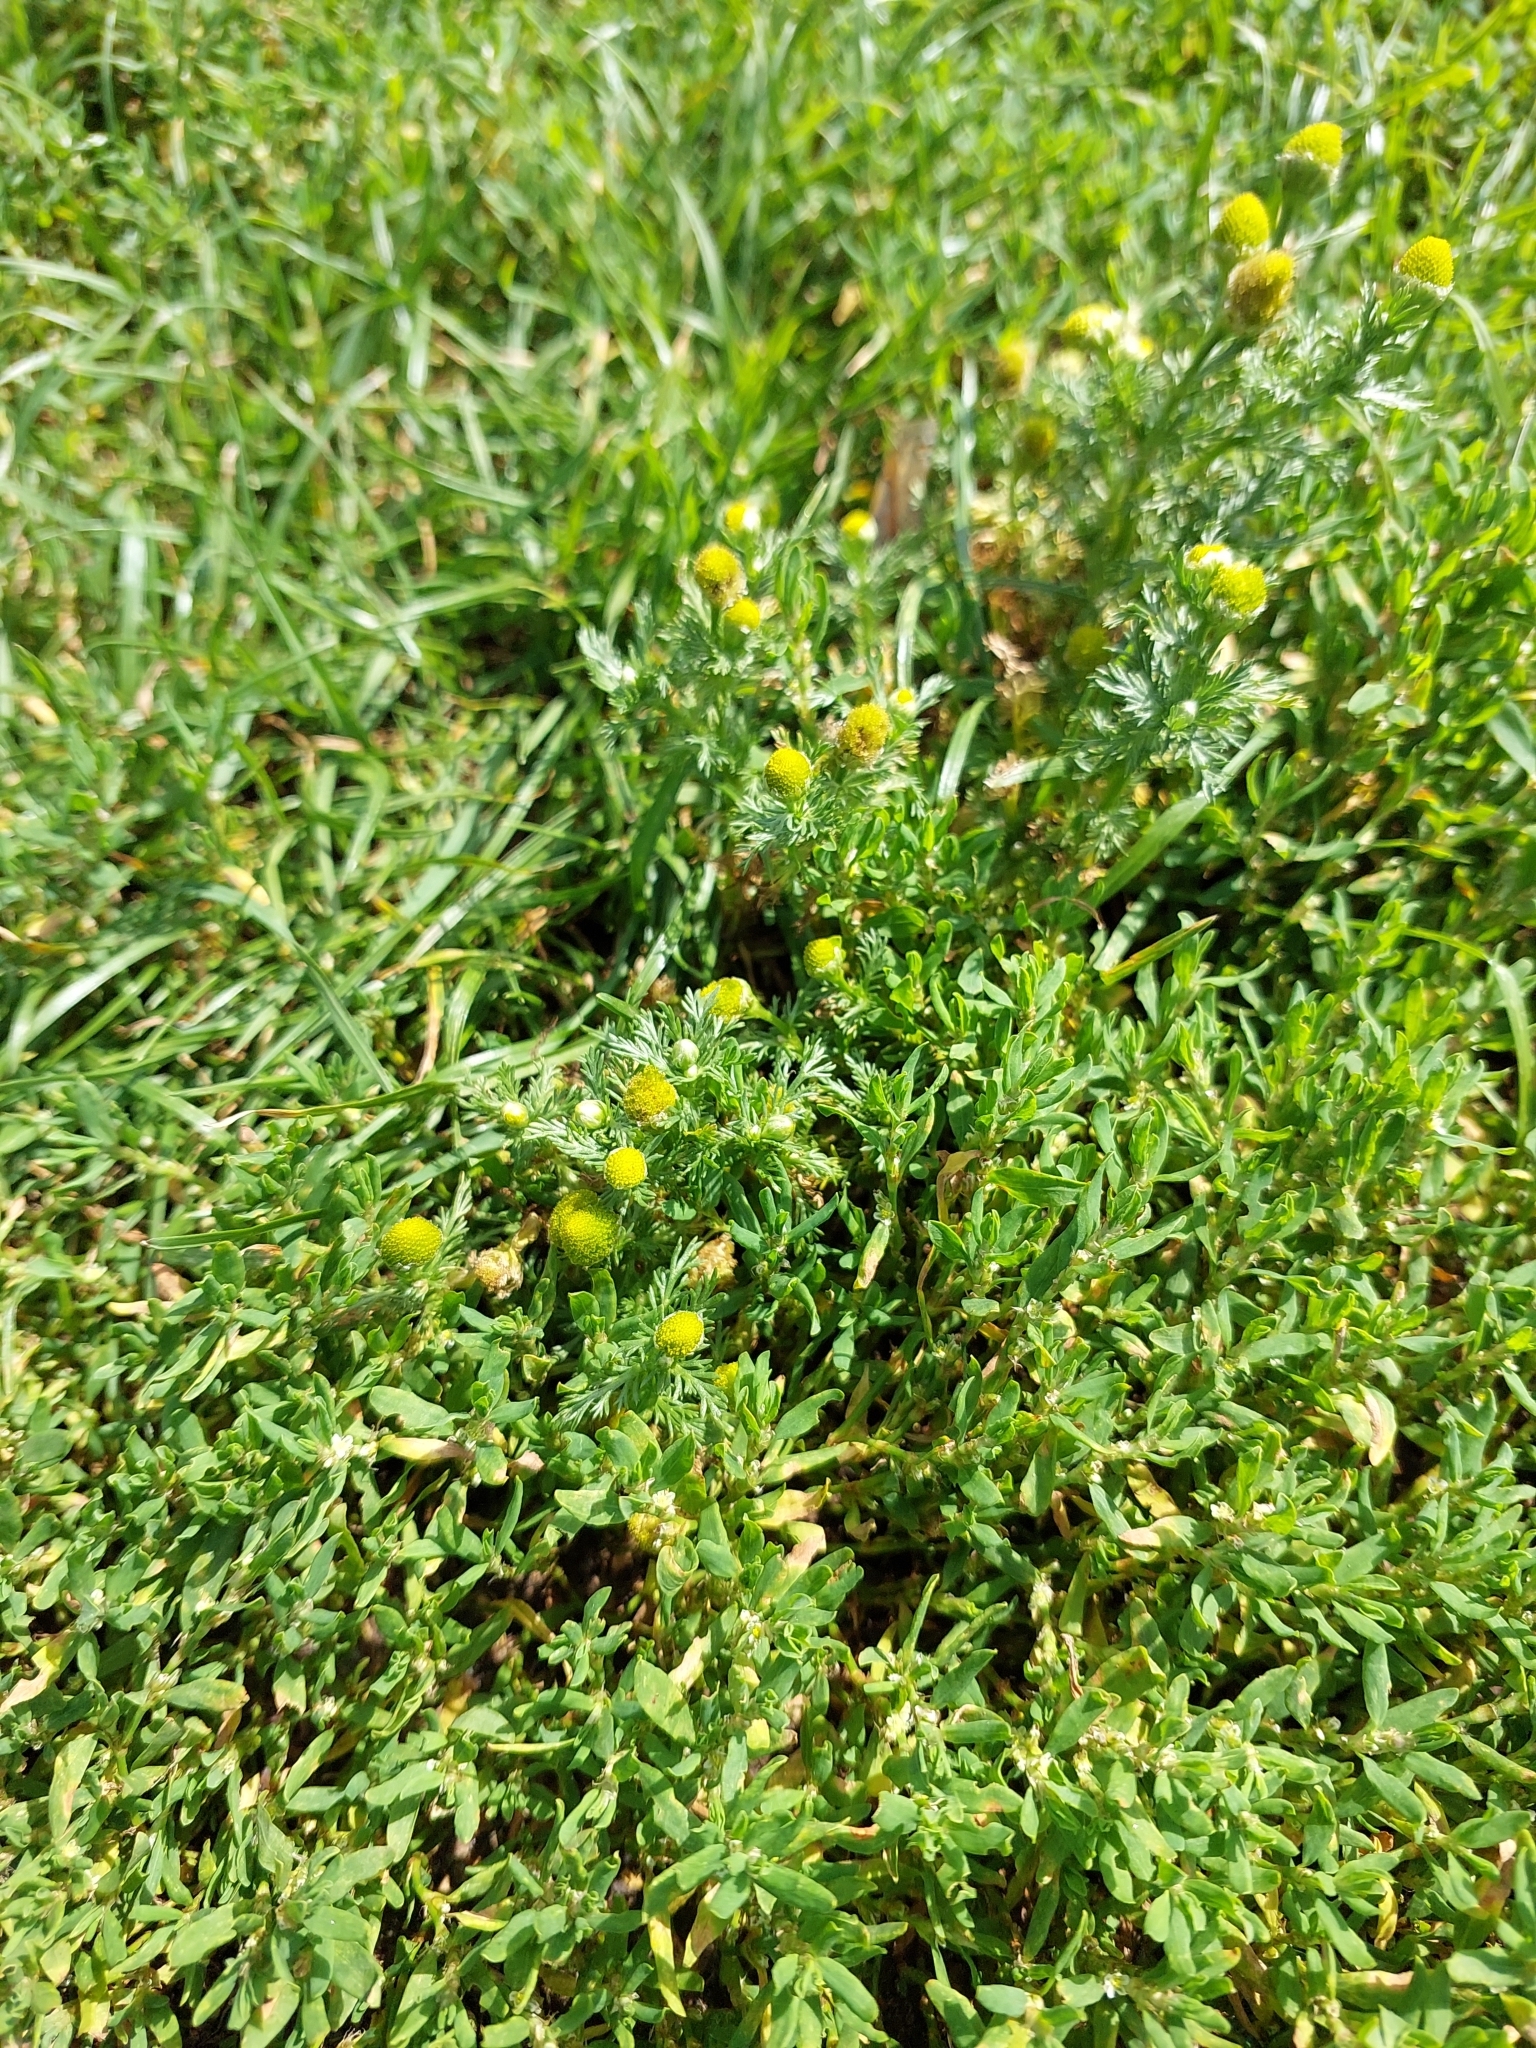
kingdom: Plantae
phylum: Tracheophyta
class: Magnoliopsida
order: Asterales
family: Asteraceae
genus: Matricaria
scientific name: Matricaria discoidea
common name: Disc mayweed
